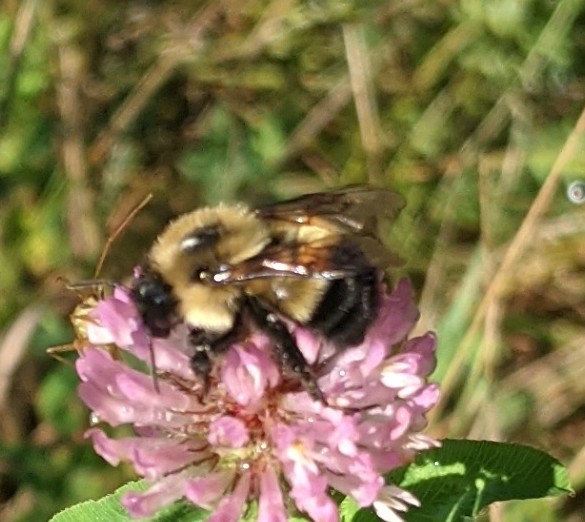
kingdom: Animalia
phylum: Arthropoda
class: Insecta
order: Hymenoptera
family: Apidae
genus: Pyrobombus
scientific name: Pyrobombus
